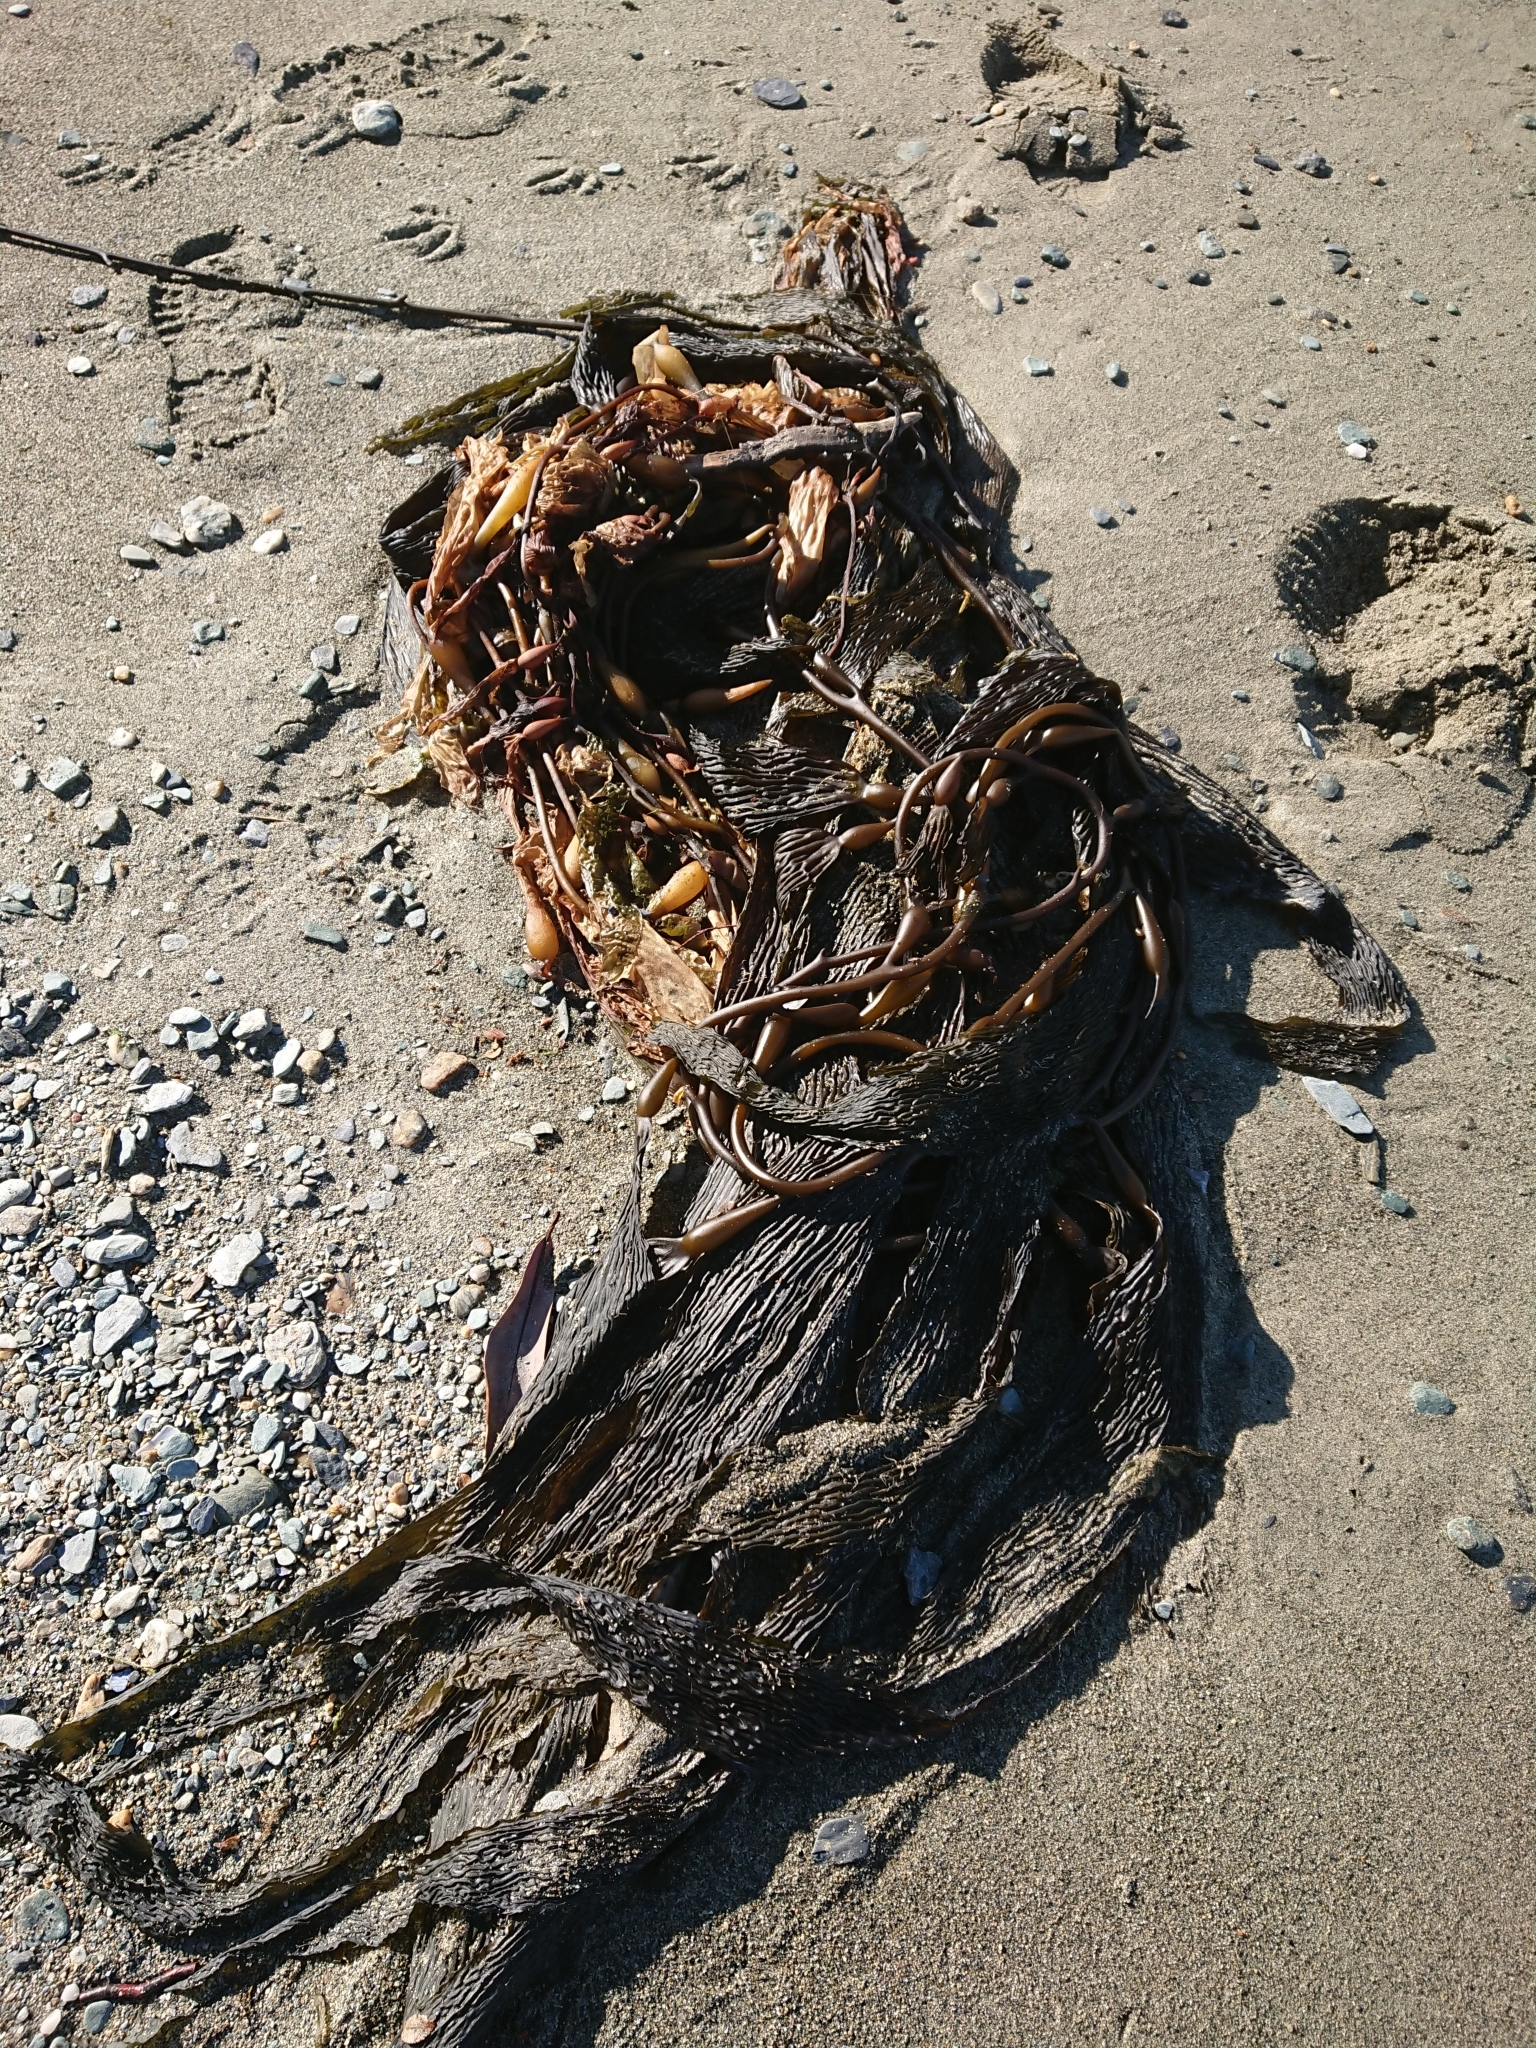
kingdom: Chromista
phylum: Ochrophyta
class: Phaeophyceae
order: Laminariales
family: Laminariaceae
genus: Macrocystis
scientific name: Macrocystis pyrifera
